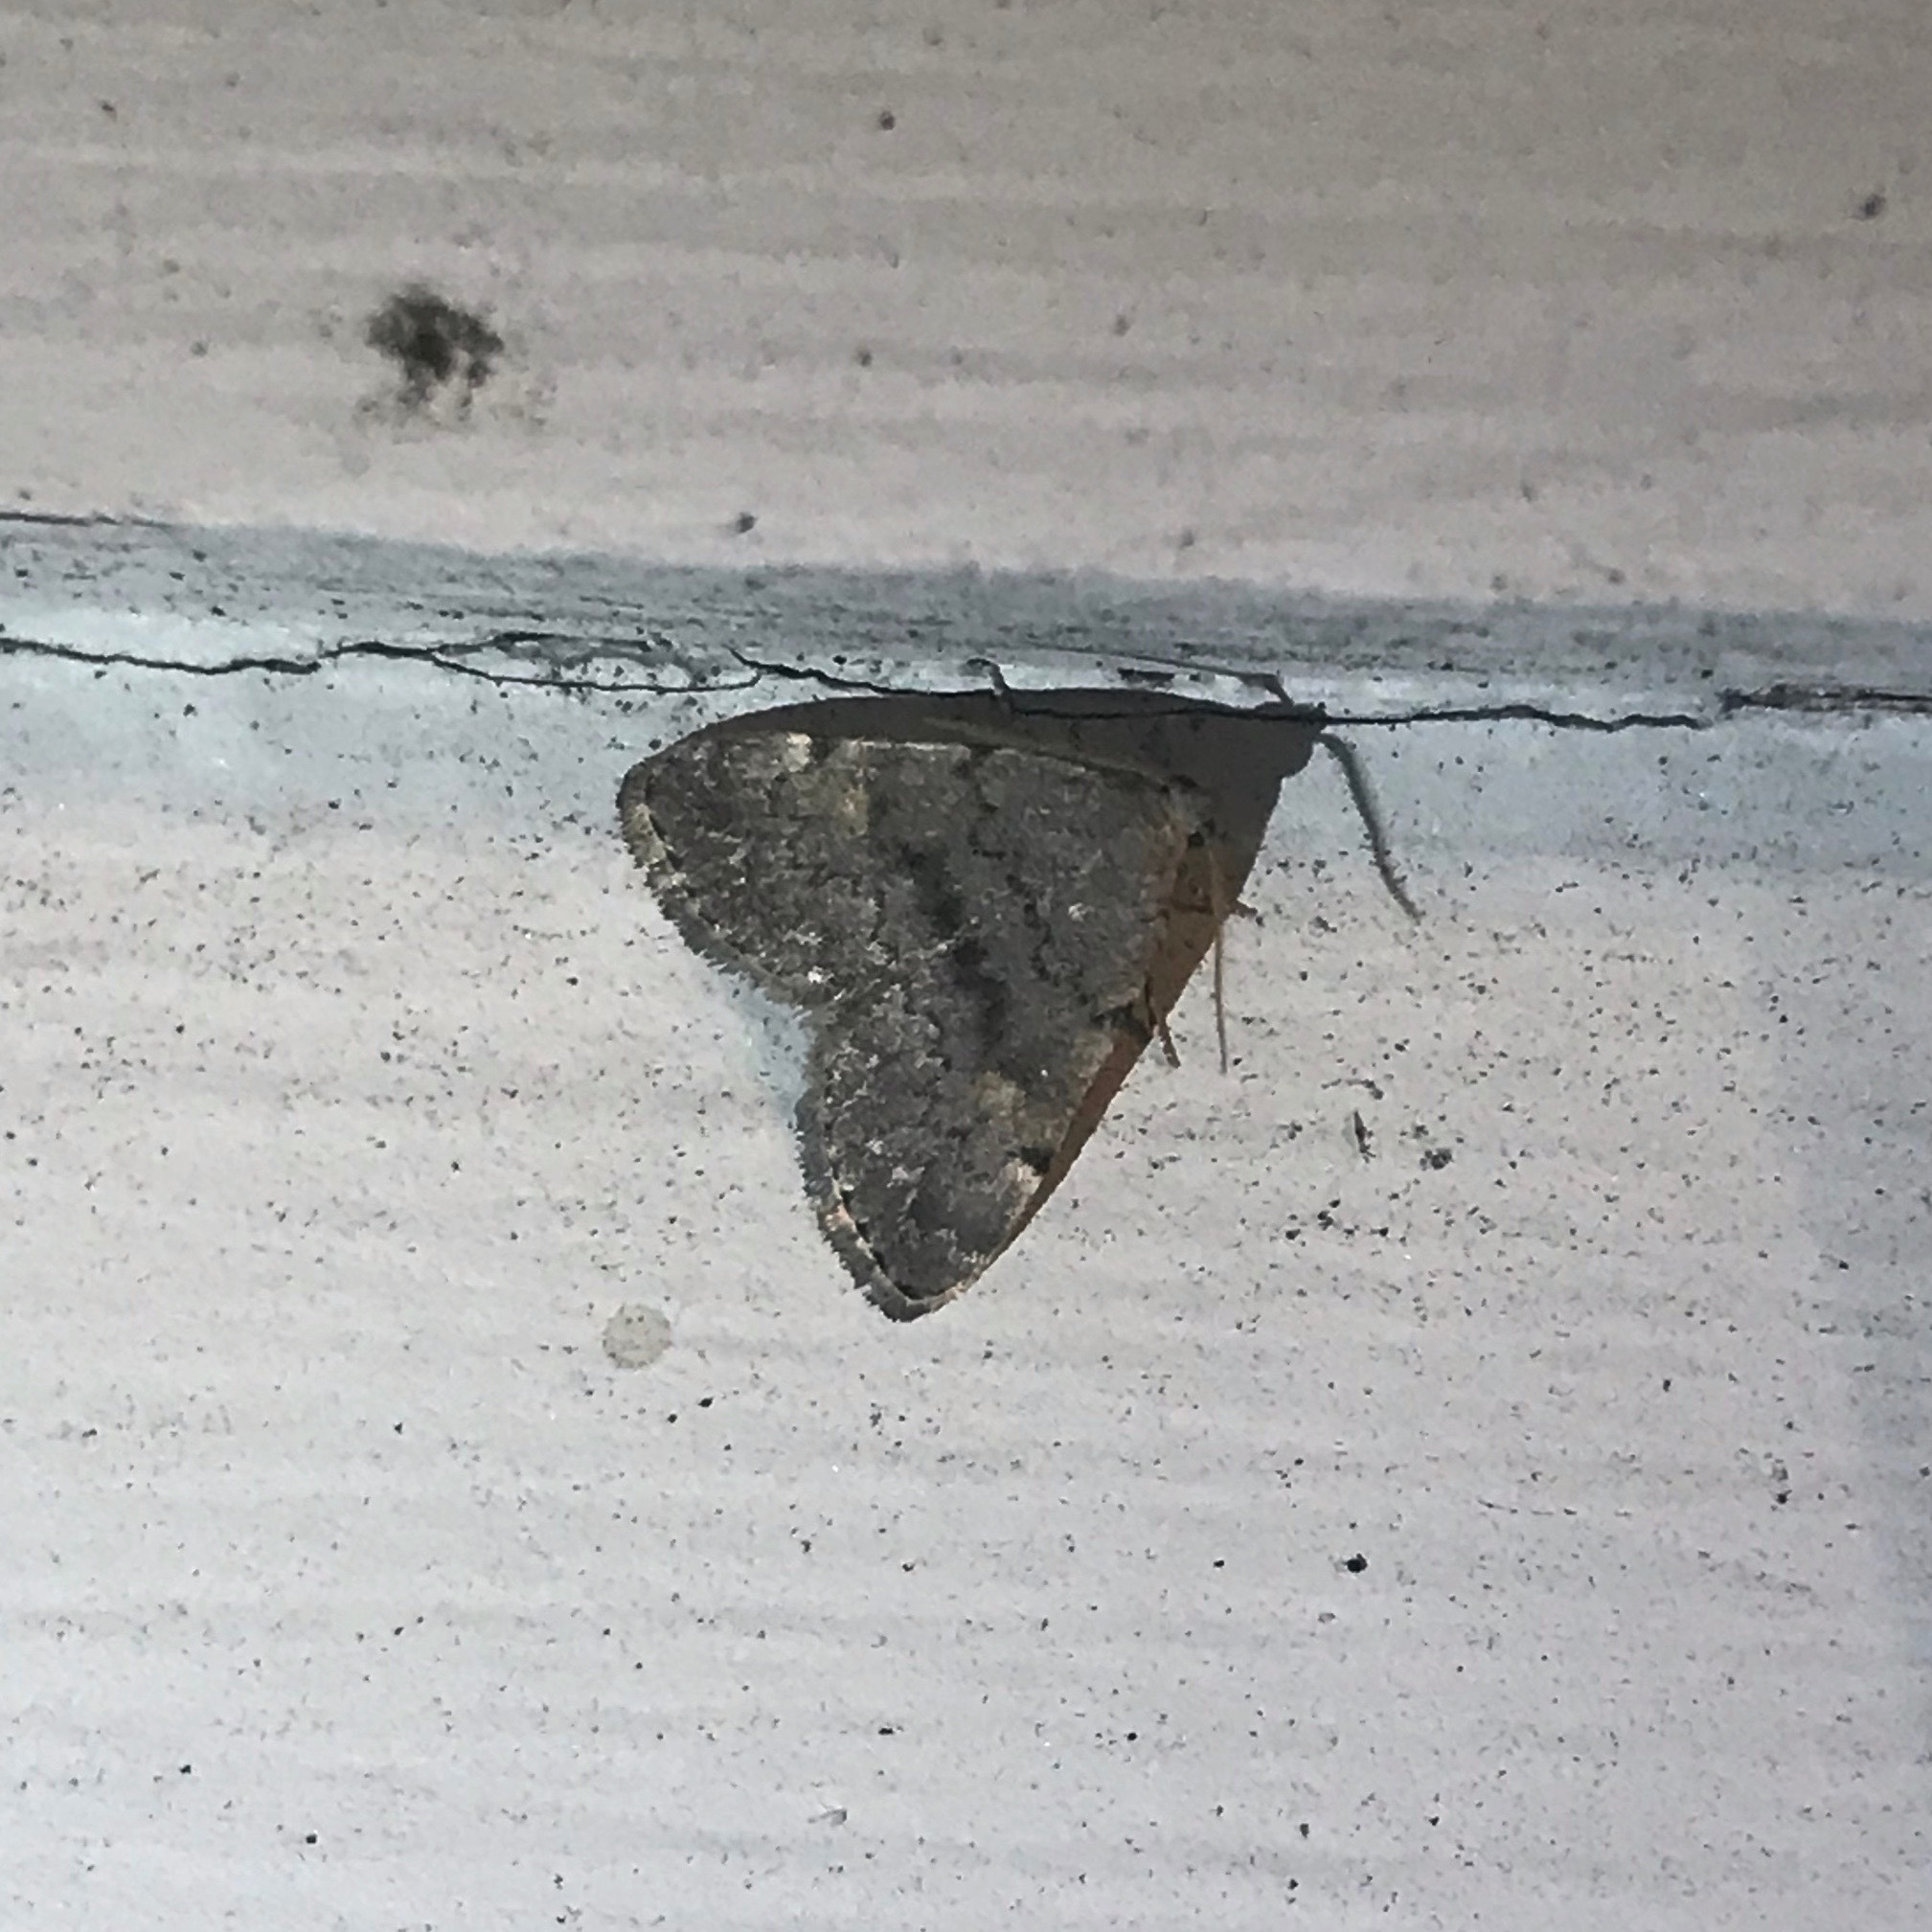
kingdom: Animalia
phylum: Arthropoda
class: Insecta
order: Lepidoptera
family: Erebidae
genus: Idia
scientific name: Idia aemula
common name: Common idia moth
